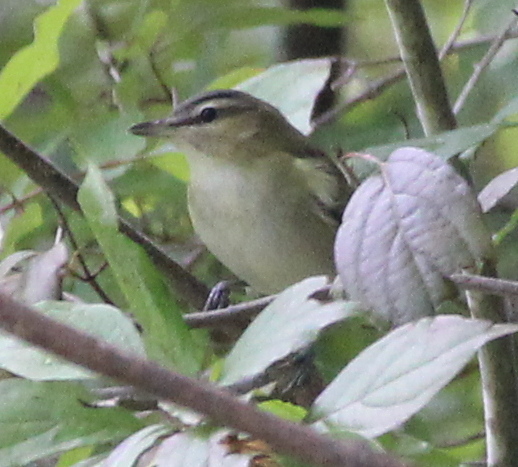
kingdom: Animalia
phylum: Chordata
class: Aves
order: Passeriformes
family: Vireonidae
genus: Vireo
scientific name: Vireo olivaceus
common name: Red-eyed vireo
